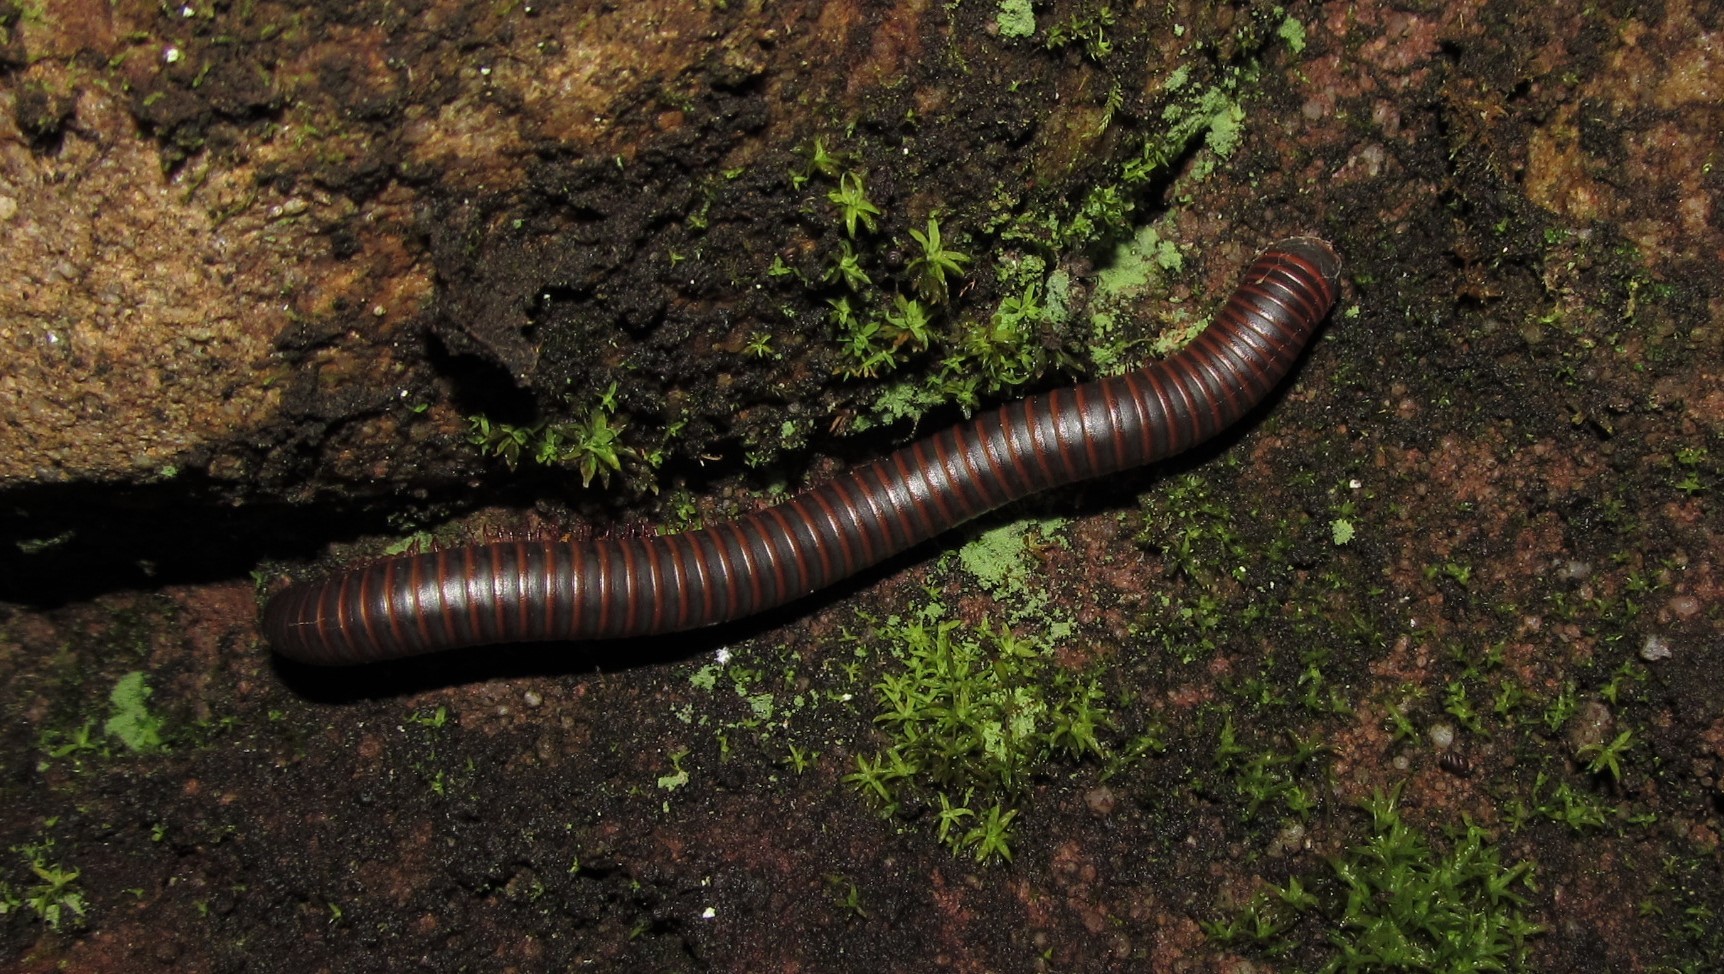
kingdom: Animalia
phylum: Arthropoda
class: Diplopoda
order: Spirobolida
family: Spirobolidae
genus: Narceus
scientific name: Narceus
